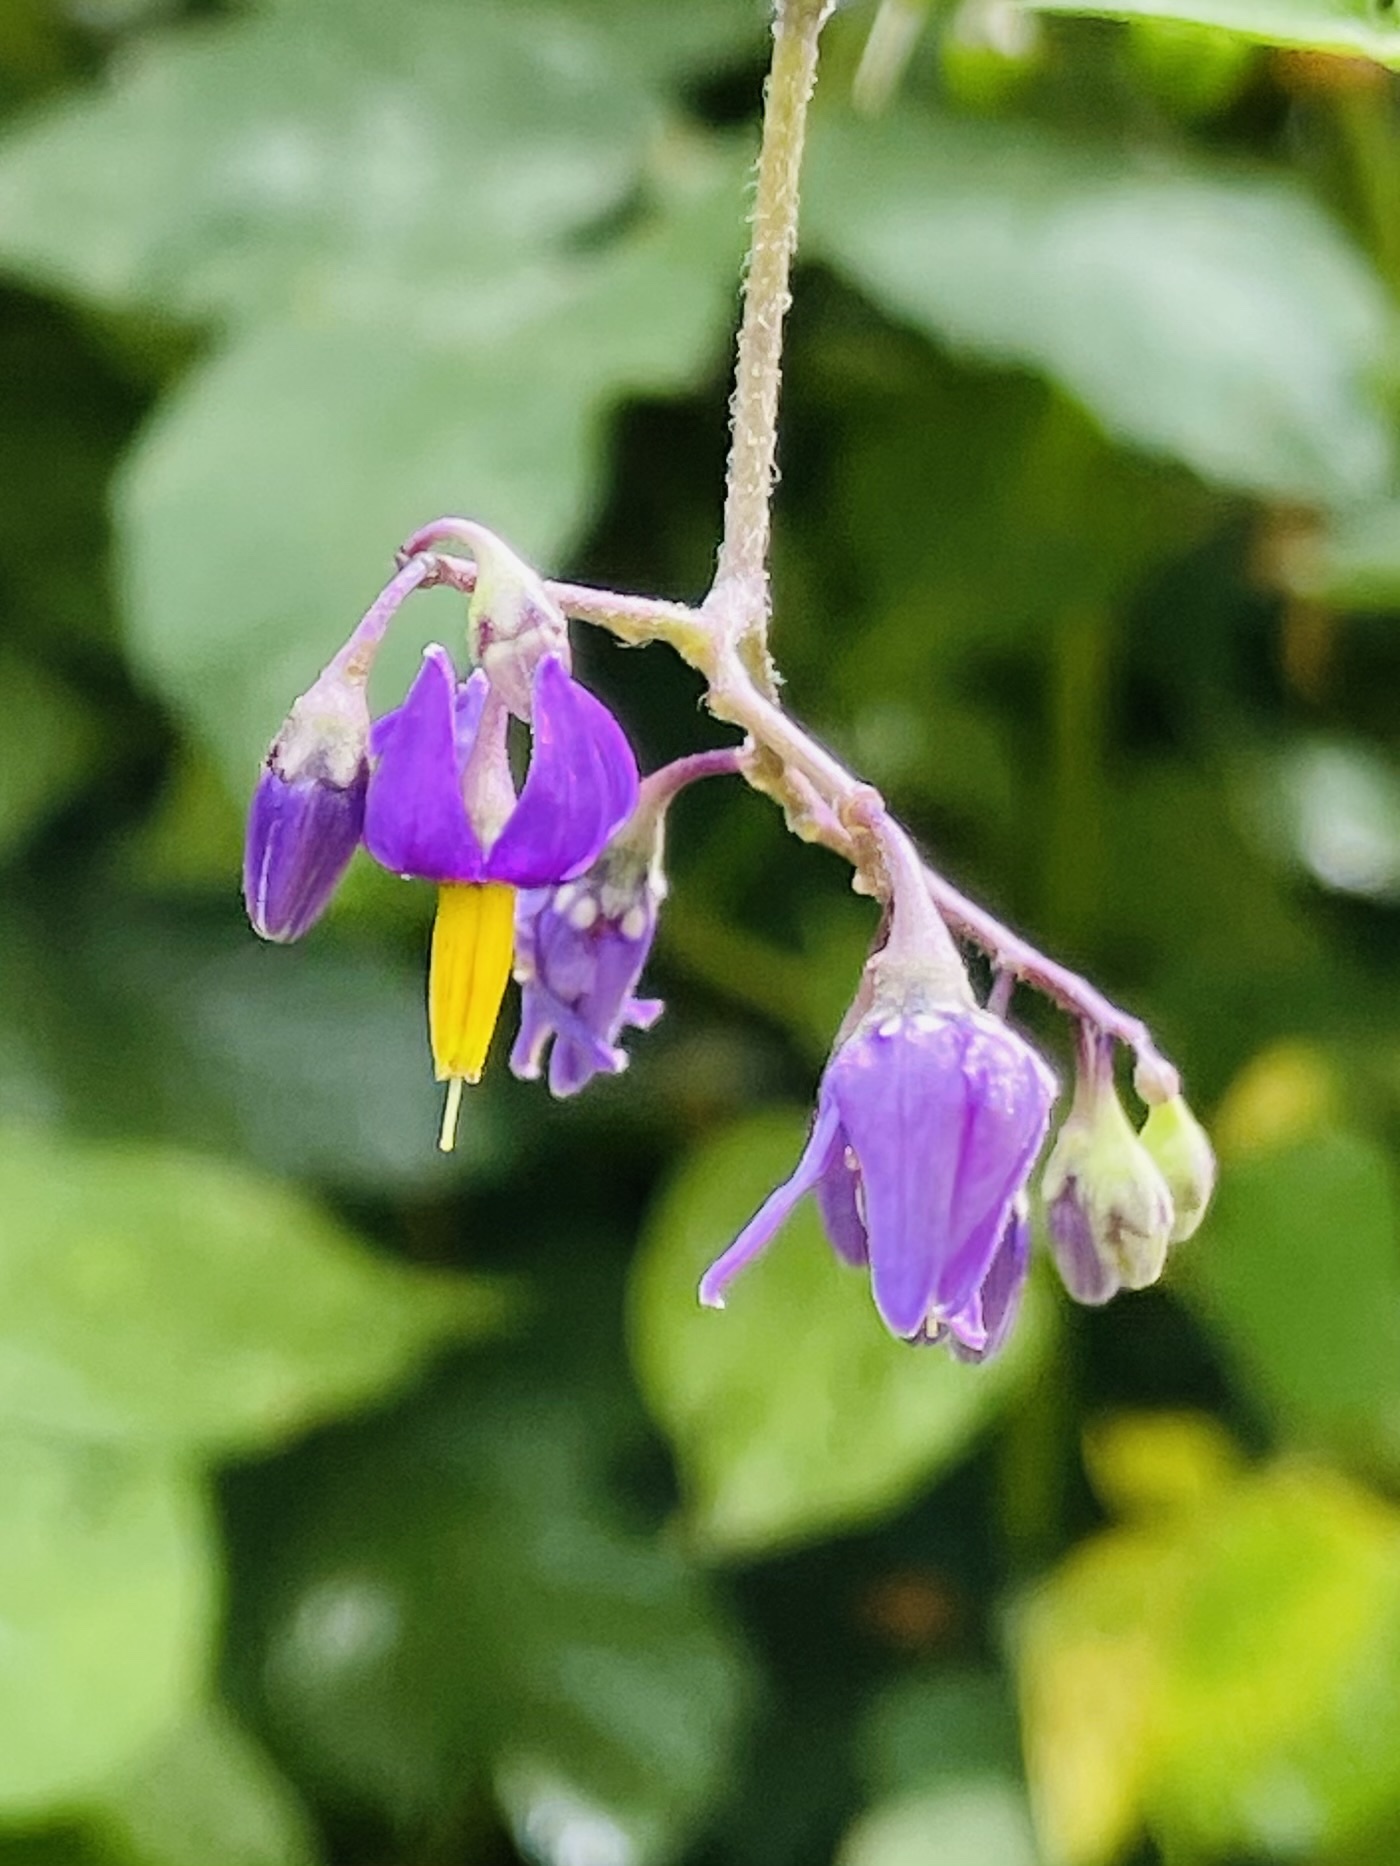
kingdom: Plantae
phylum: Tracheophyta
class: Magnoliopsida
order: Solanales
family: Solanaceae
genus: Solanum
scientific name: Solanum dulcamara
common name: Climbing nightshade
